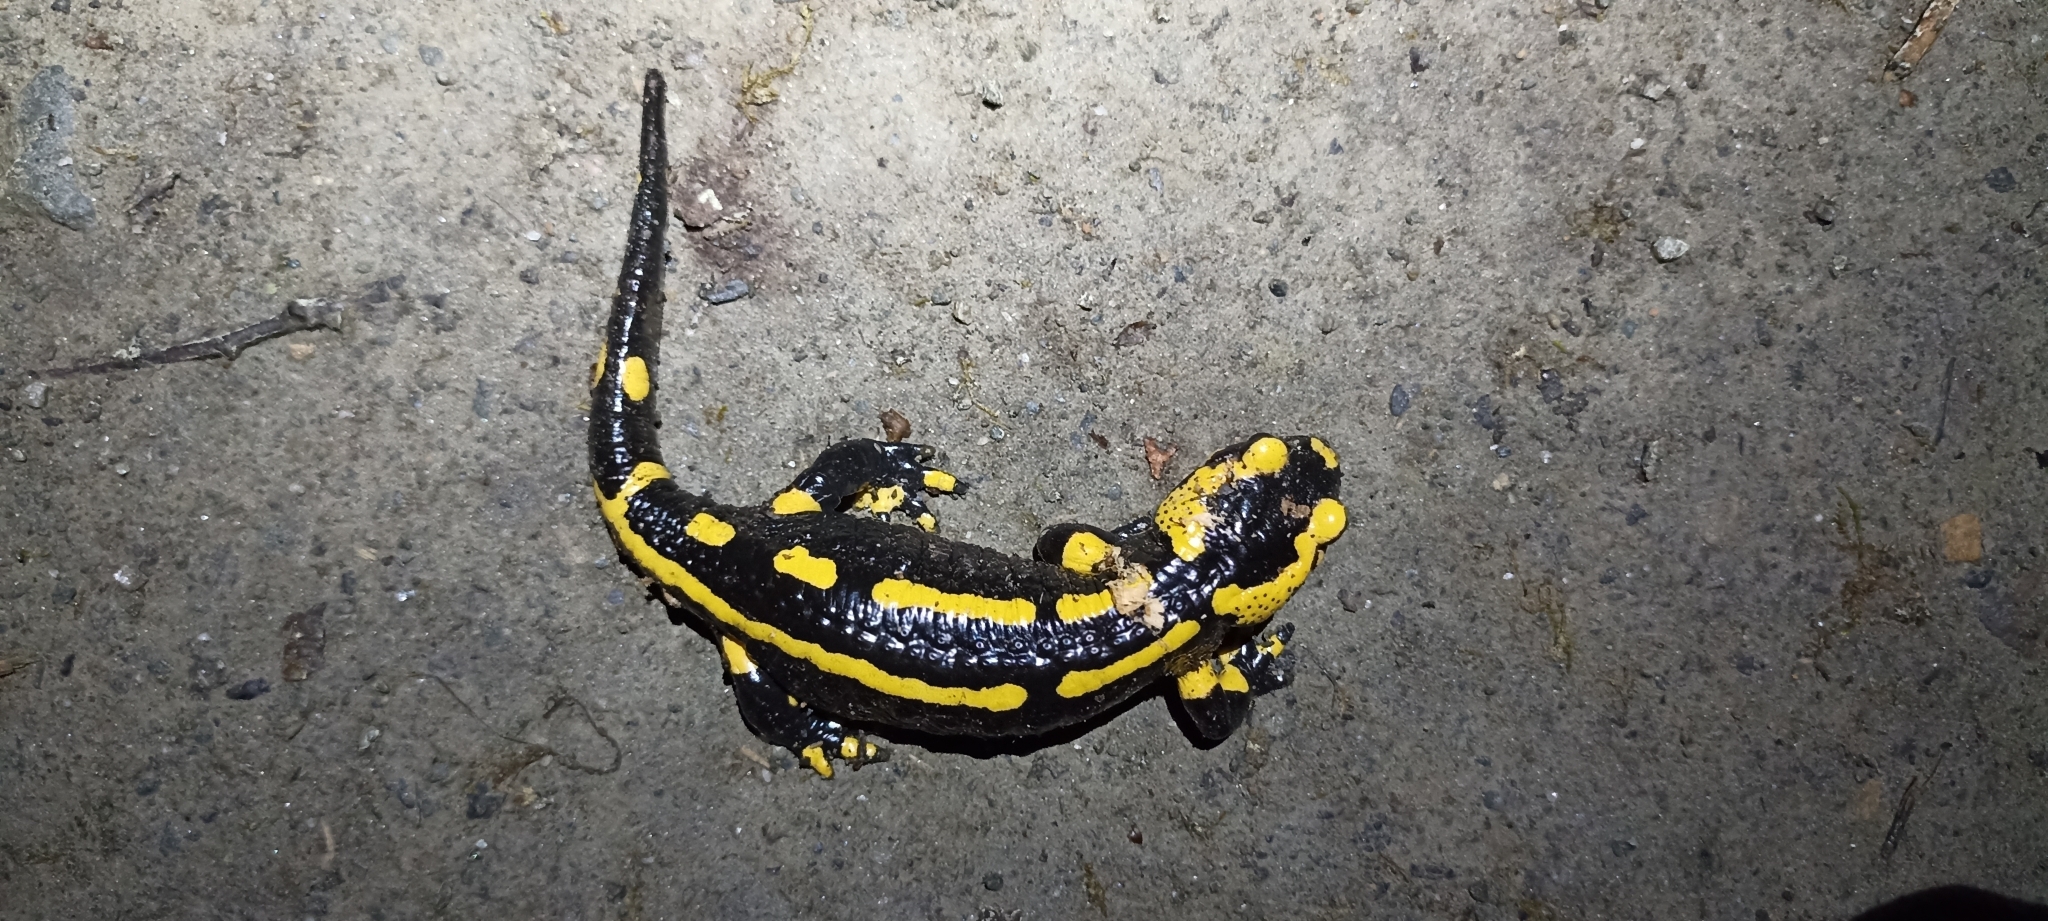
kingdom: Animalia
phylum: Chordata
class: Amphibia
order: Caudata
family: Salamandridae
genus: Salamandra
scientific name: Salamandra salamandra
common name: Fire salamander
